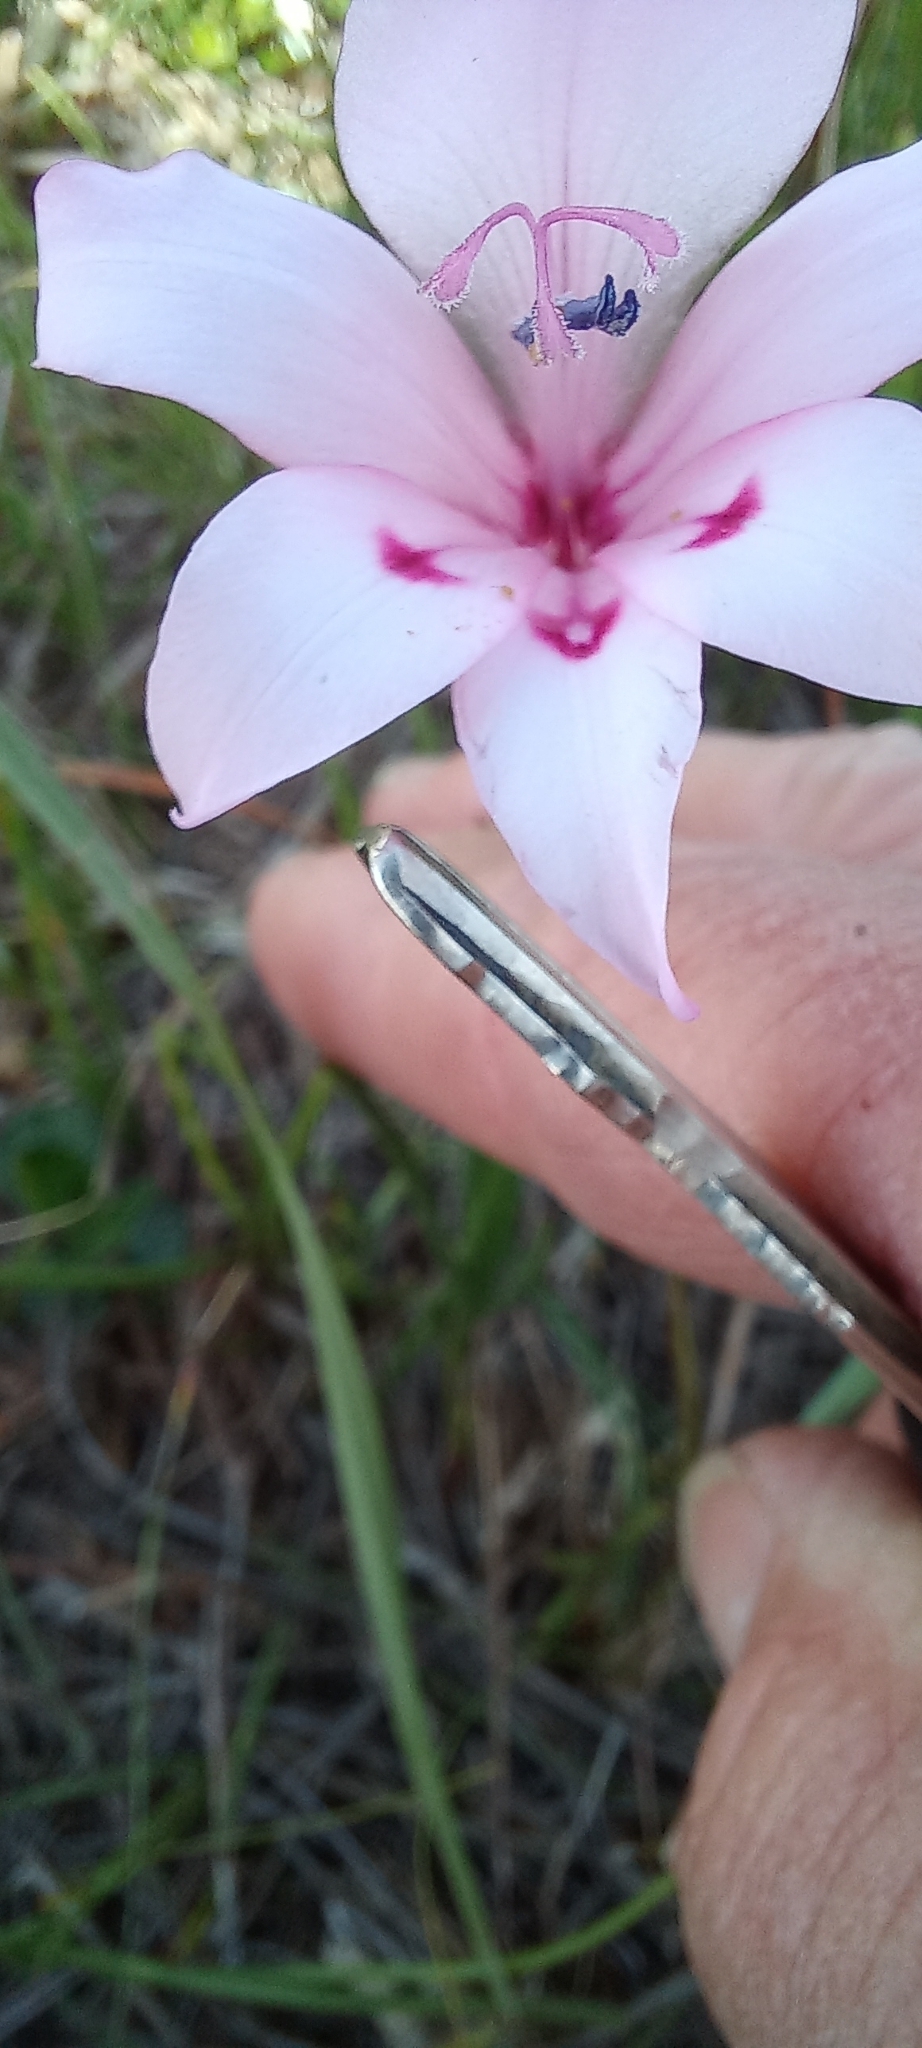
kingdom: Plantae
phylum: Tracheophyta
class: Liliopsida
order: Asparagales
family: Iridaceae
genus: Gladiolus
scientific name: Gladiolus carneus
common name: Painted-lady
